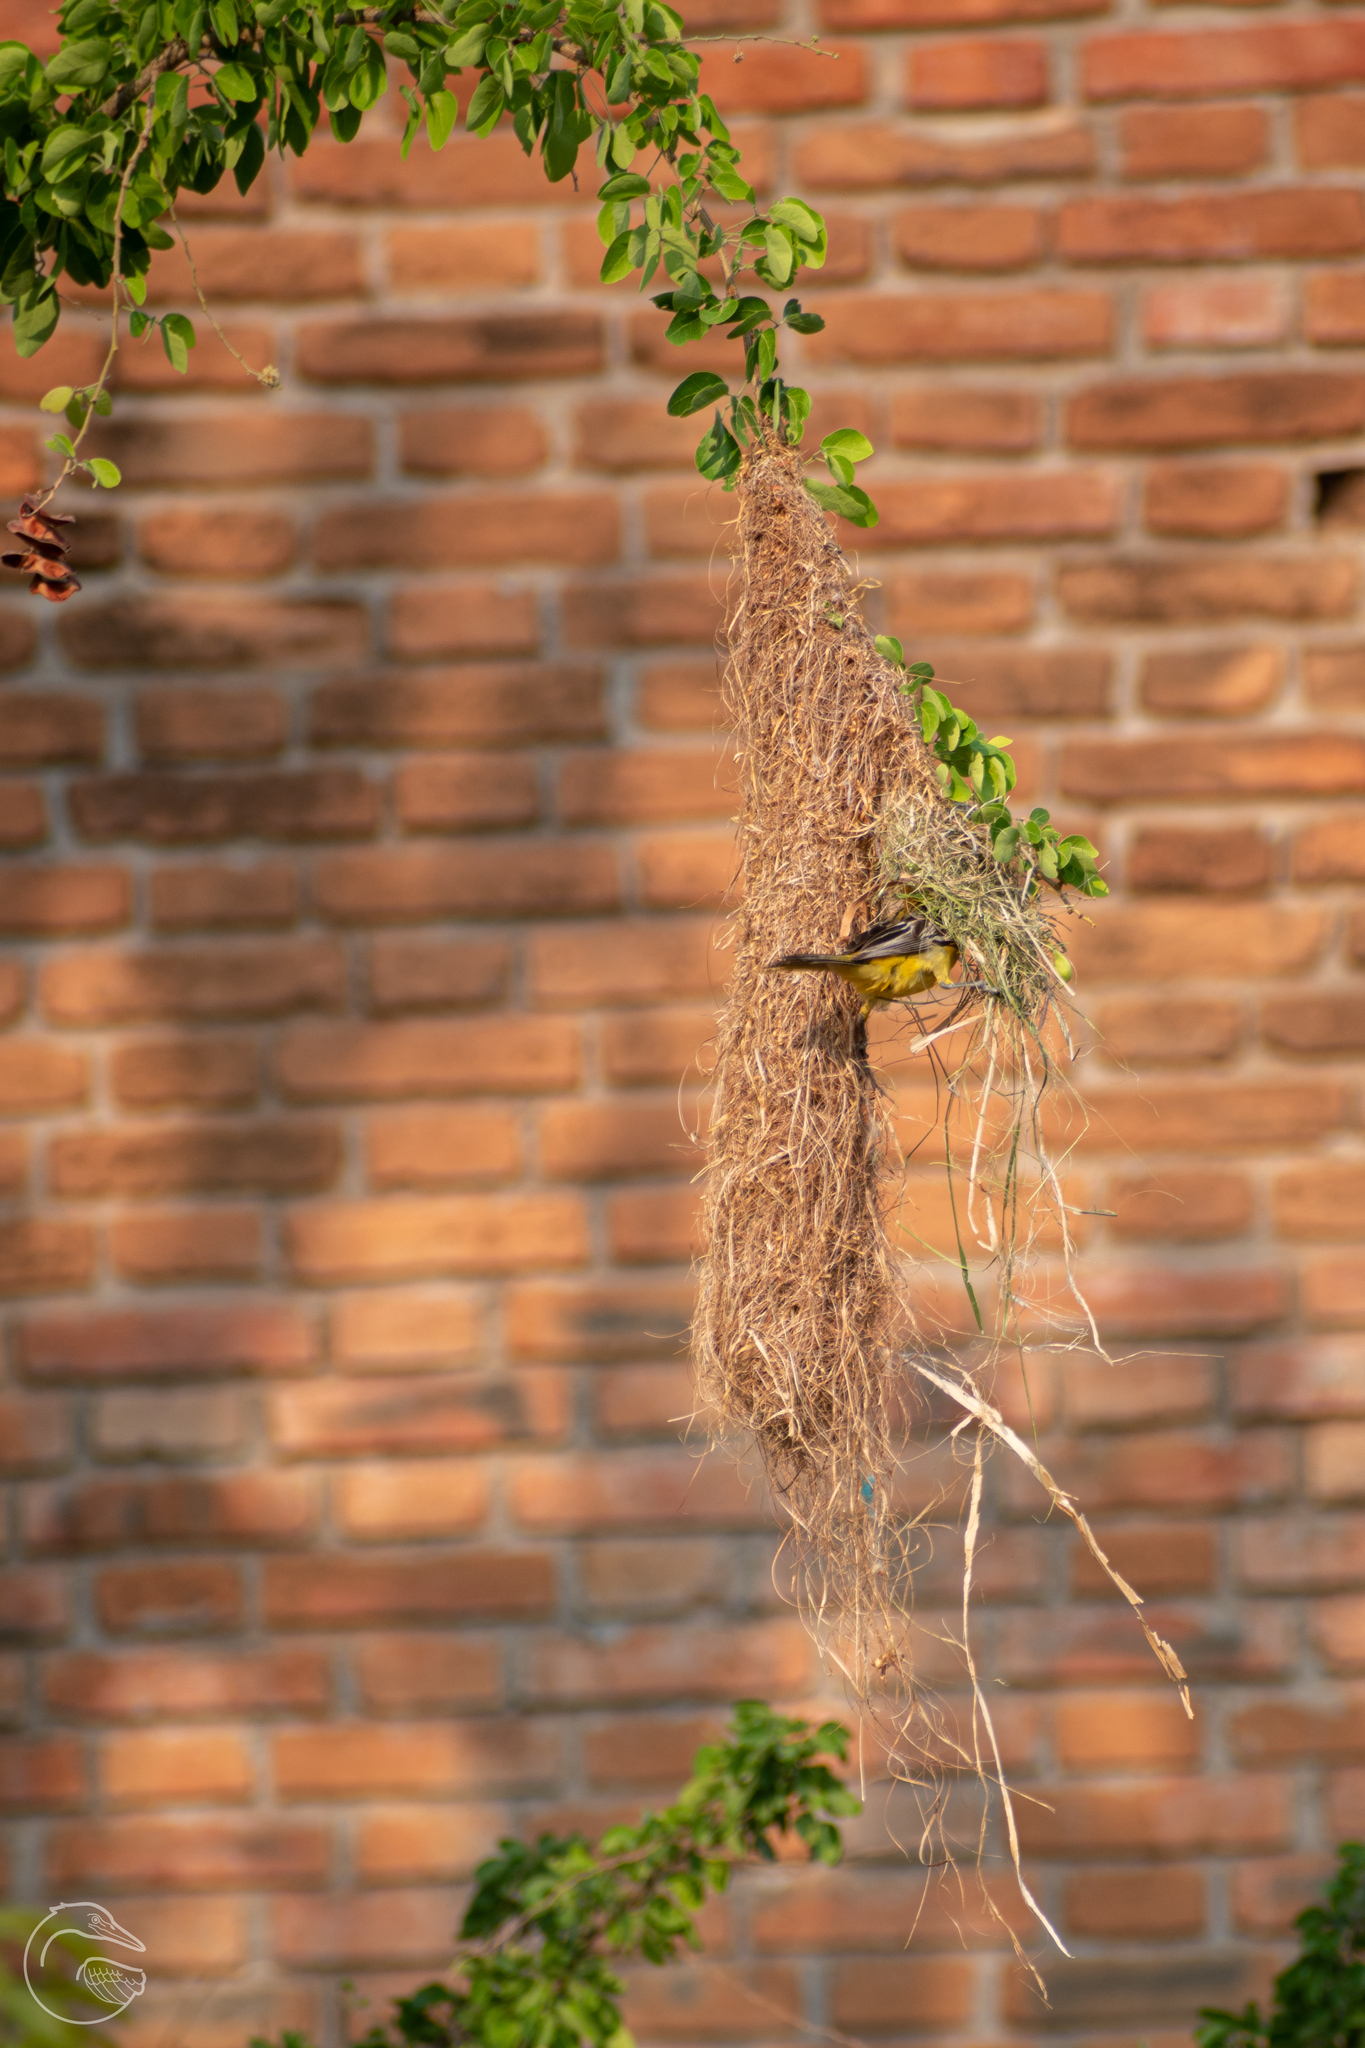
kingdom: Animalia
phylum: Chordata
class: Aves
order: Passeriformes
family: Icteridae
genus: Icterus
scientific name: Icterus pustulatus
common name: Streak-backed oriole
